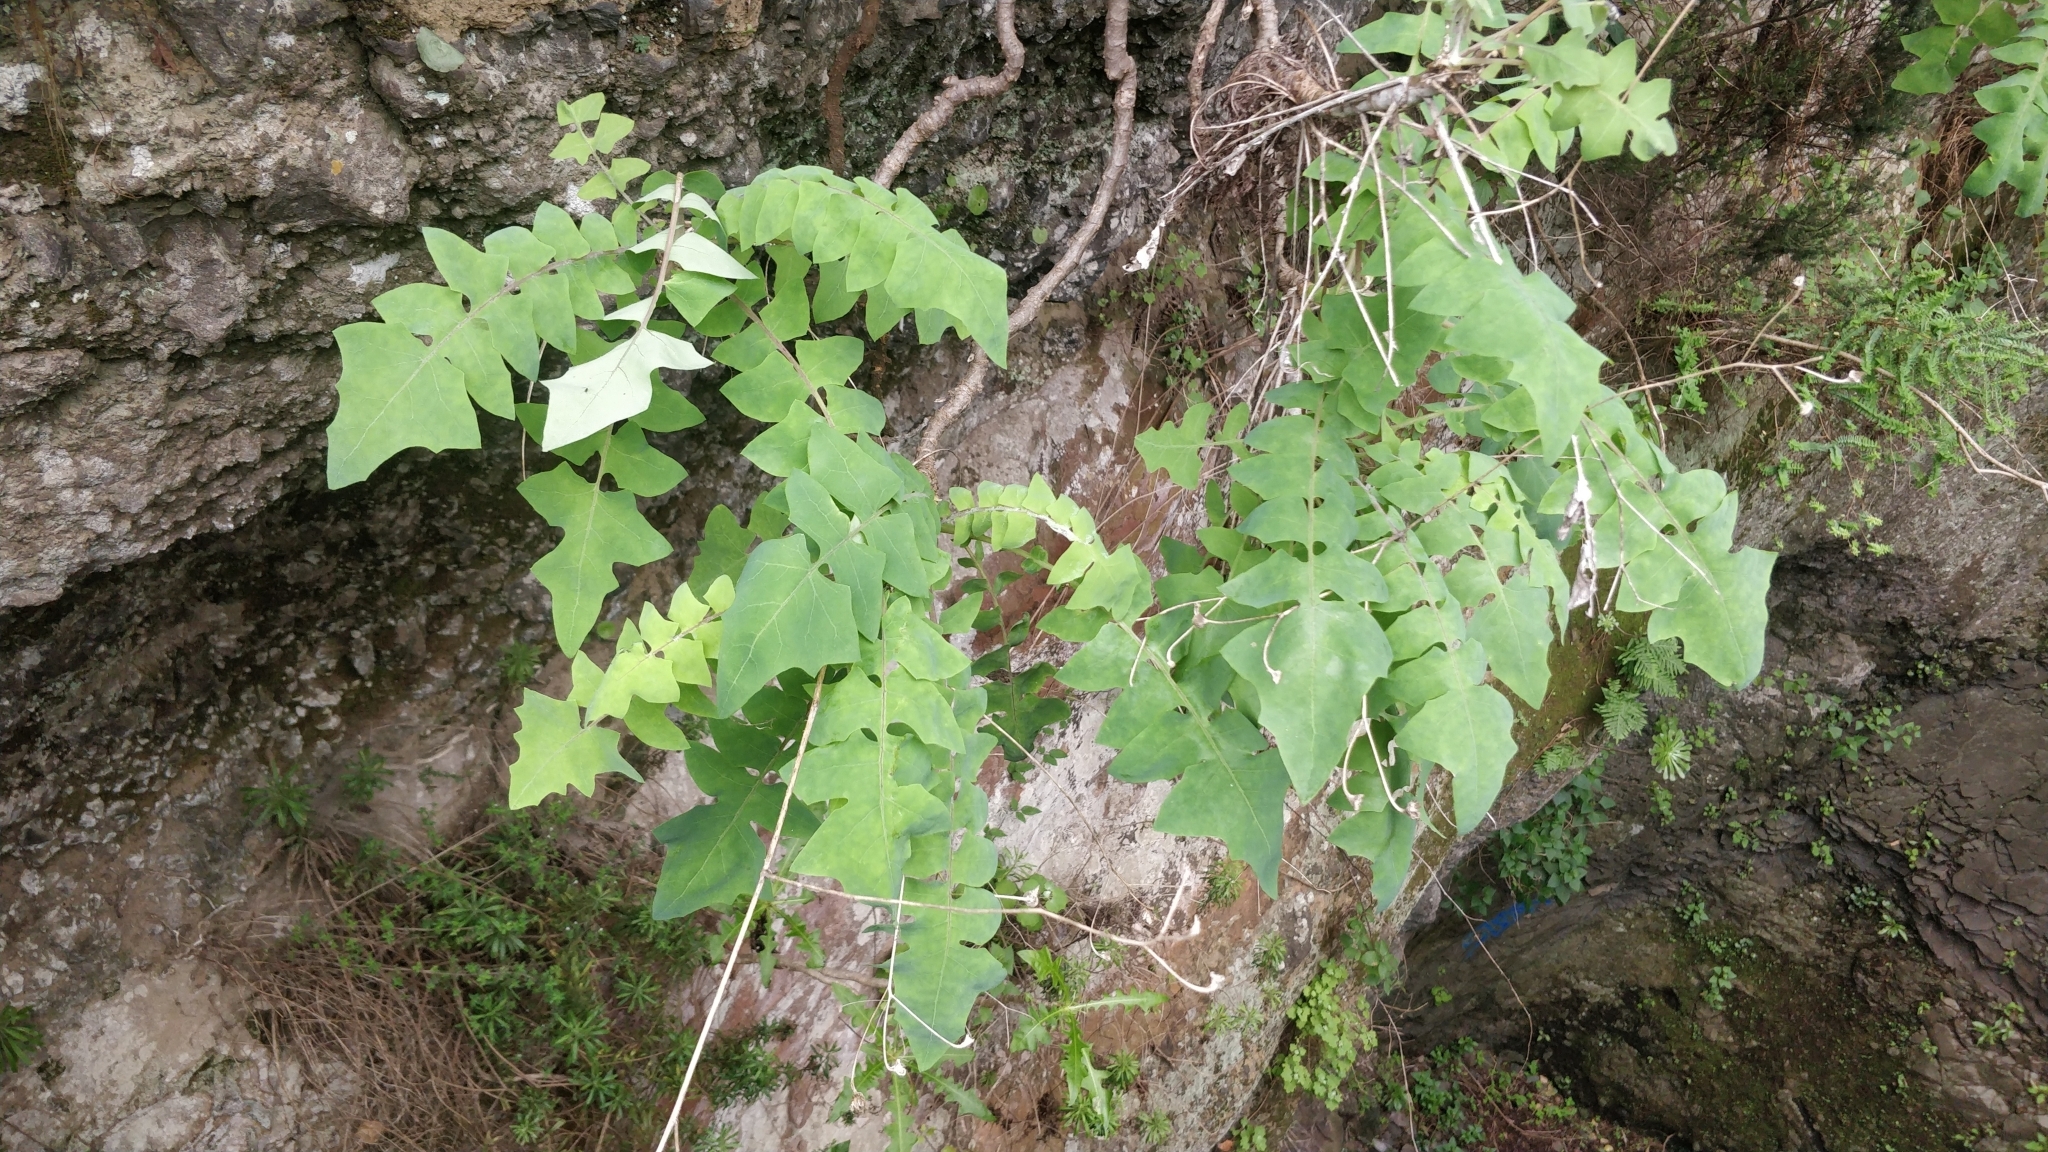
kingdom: Plantae
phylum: Tracheophyta
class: Magnoliopsida
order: Asterales
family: Asteraceae
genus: Sonchus
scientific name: Sonchus gummifer
